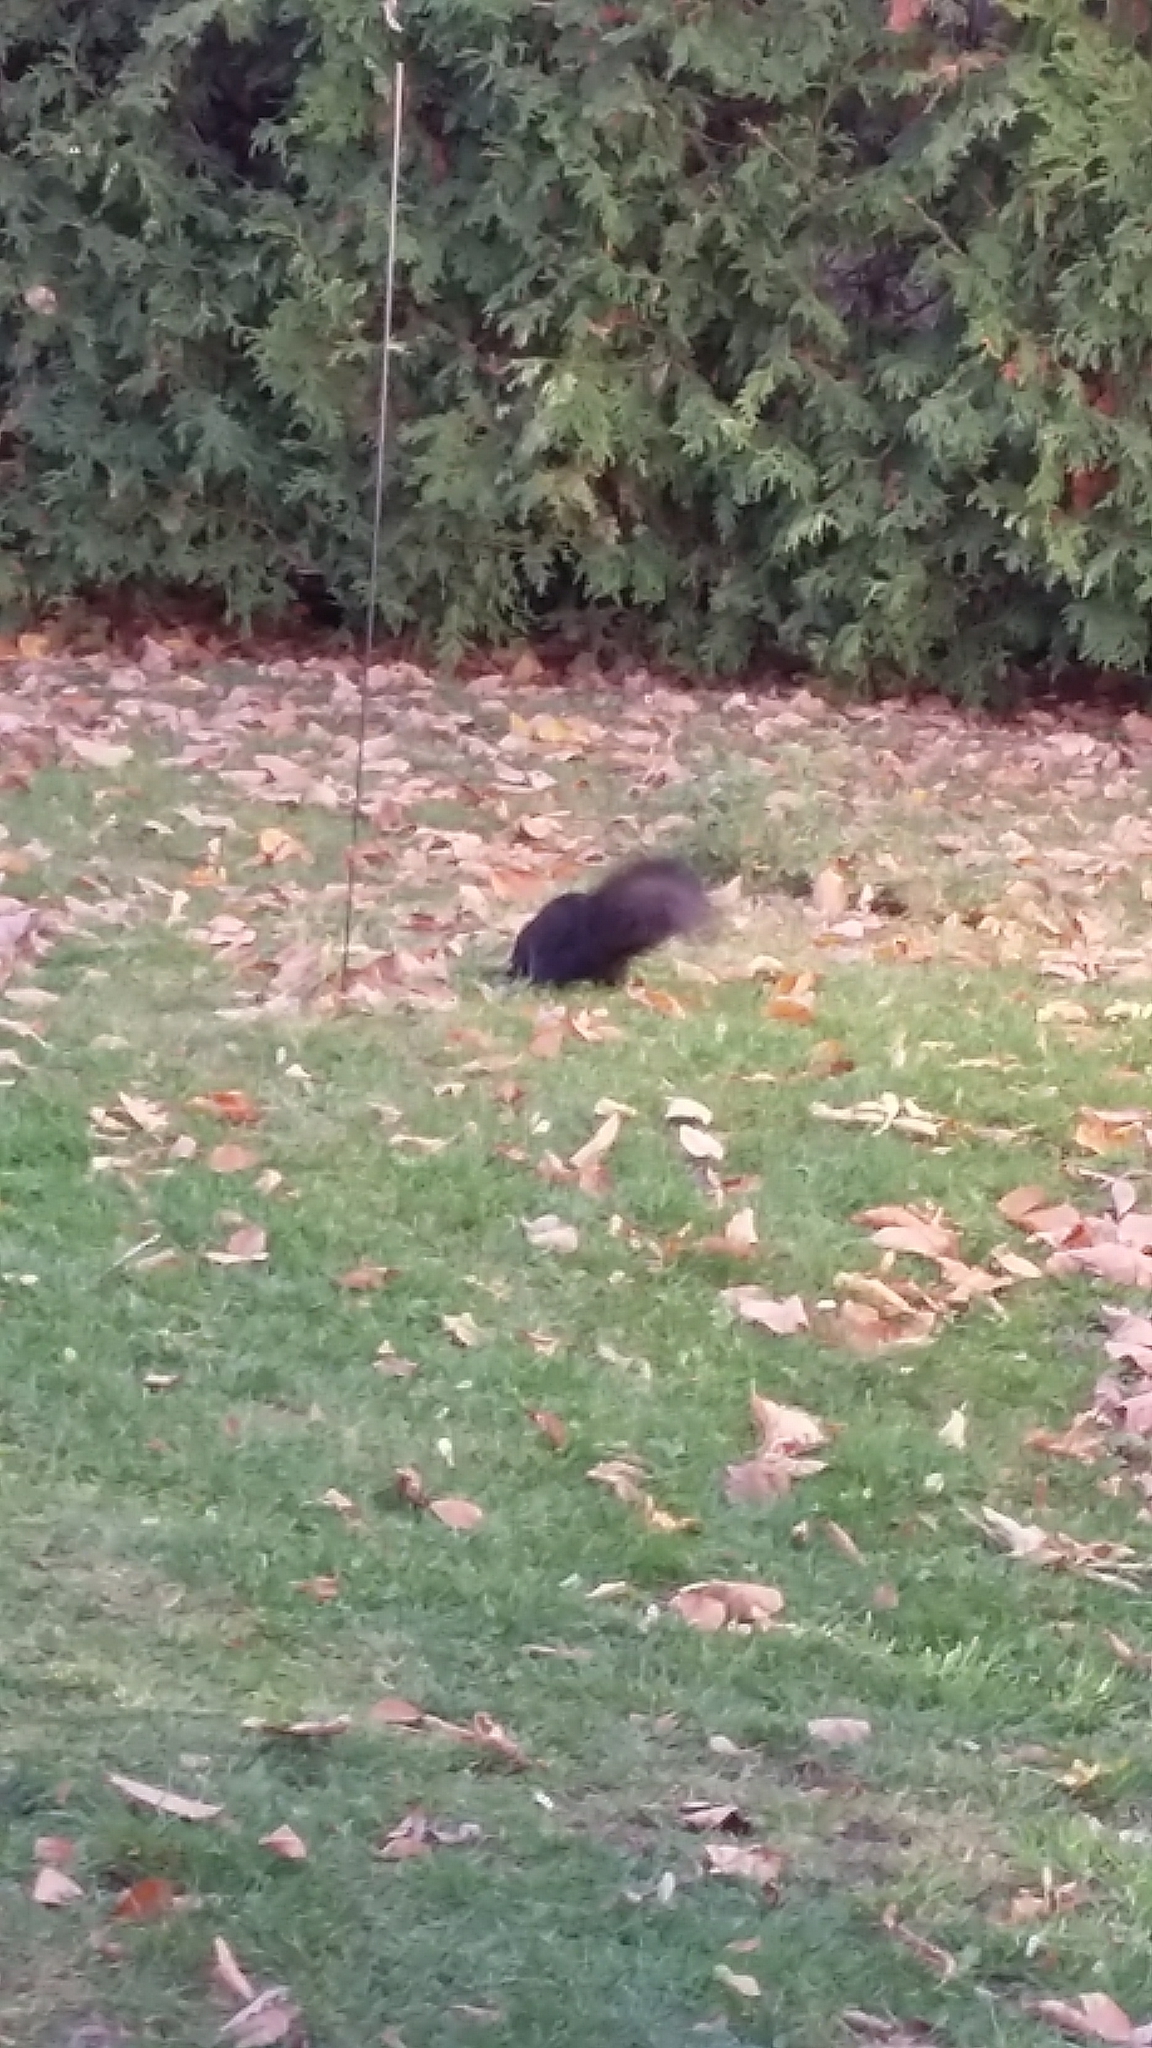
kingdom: Animalia
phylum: Chordata
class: Mammalia
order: Rodentia
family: Sciuridae
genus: Sciurus
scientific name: Sciurus carolinensis
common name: Eastern gray squirrel
